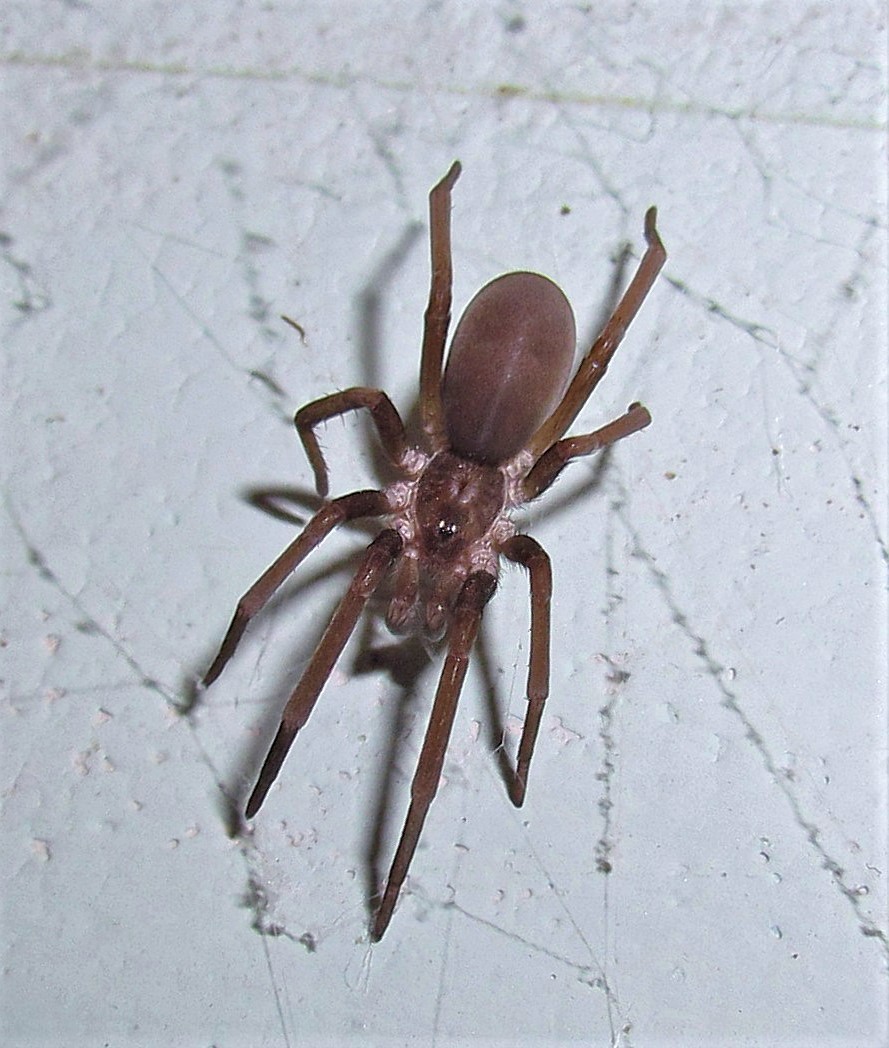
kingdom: Animalia
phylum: Arthropoda
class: Arachnida
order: Araneae
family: Filistatidae
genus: Kukulcania
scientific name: Kukulcania hibernalis
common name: Crevice weaver
